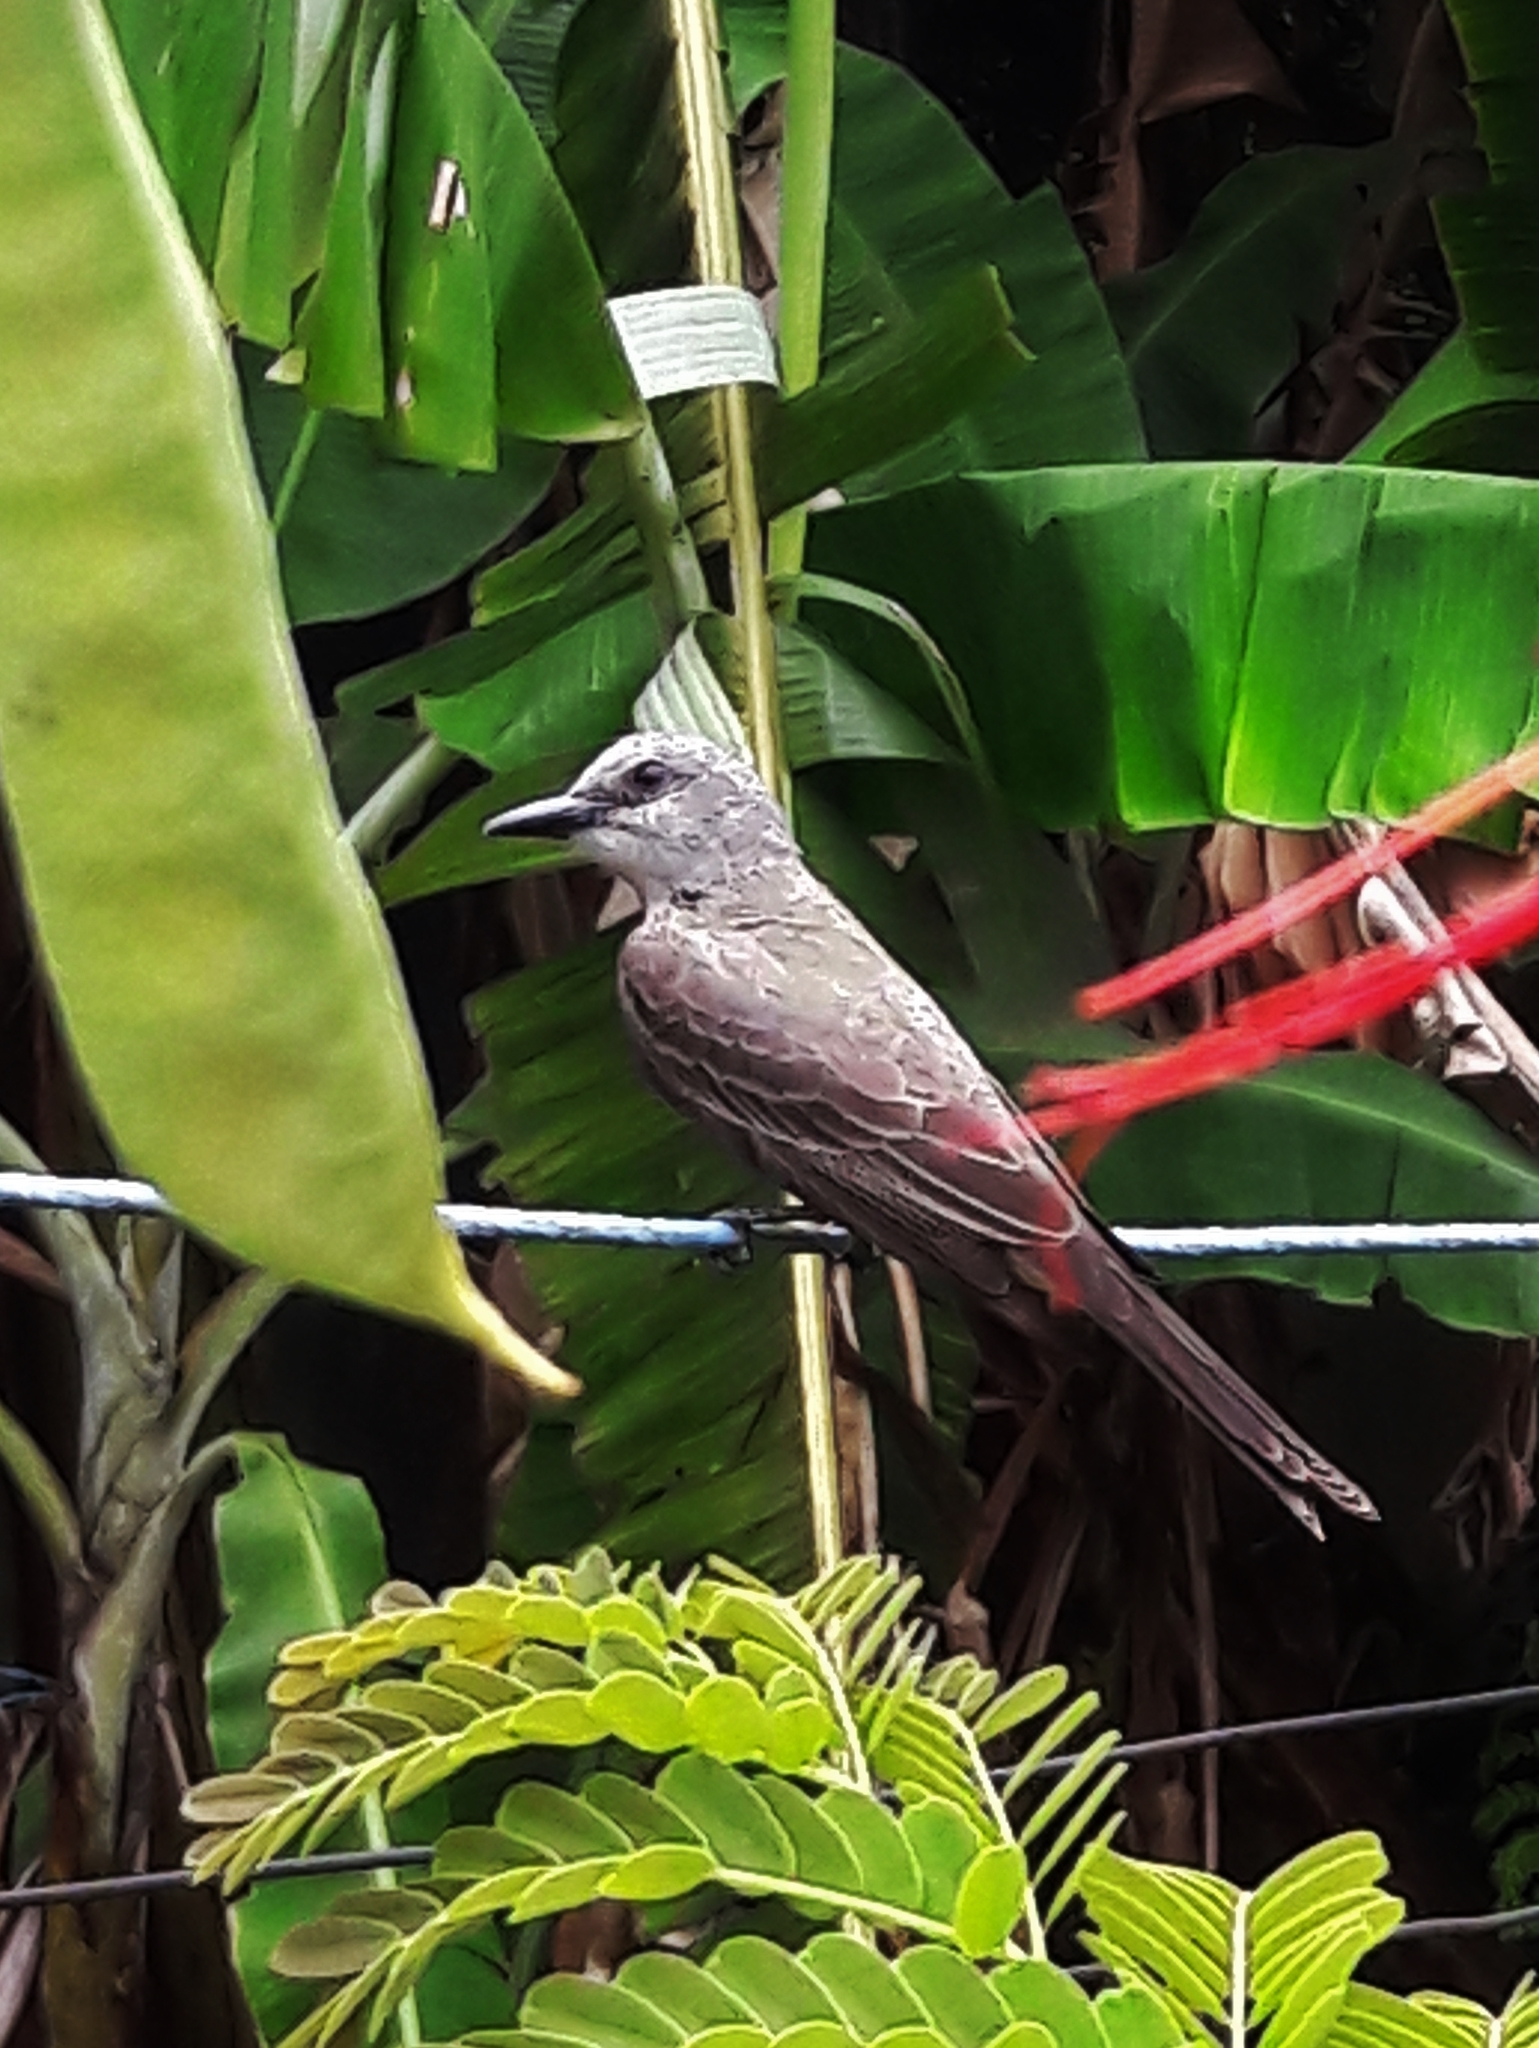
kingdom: Animalia
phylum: Chordata
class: Aves
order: Passeriformes
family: Tyrannidae
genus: Tyrannus
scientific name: Tyrannus melancholicus
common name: Tropical kingbird
